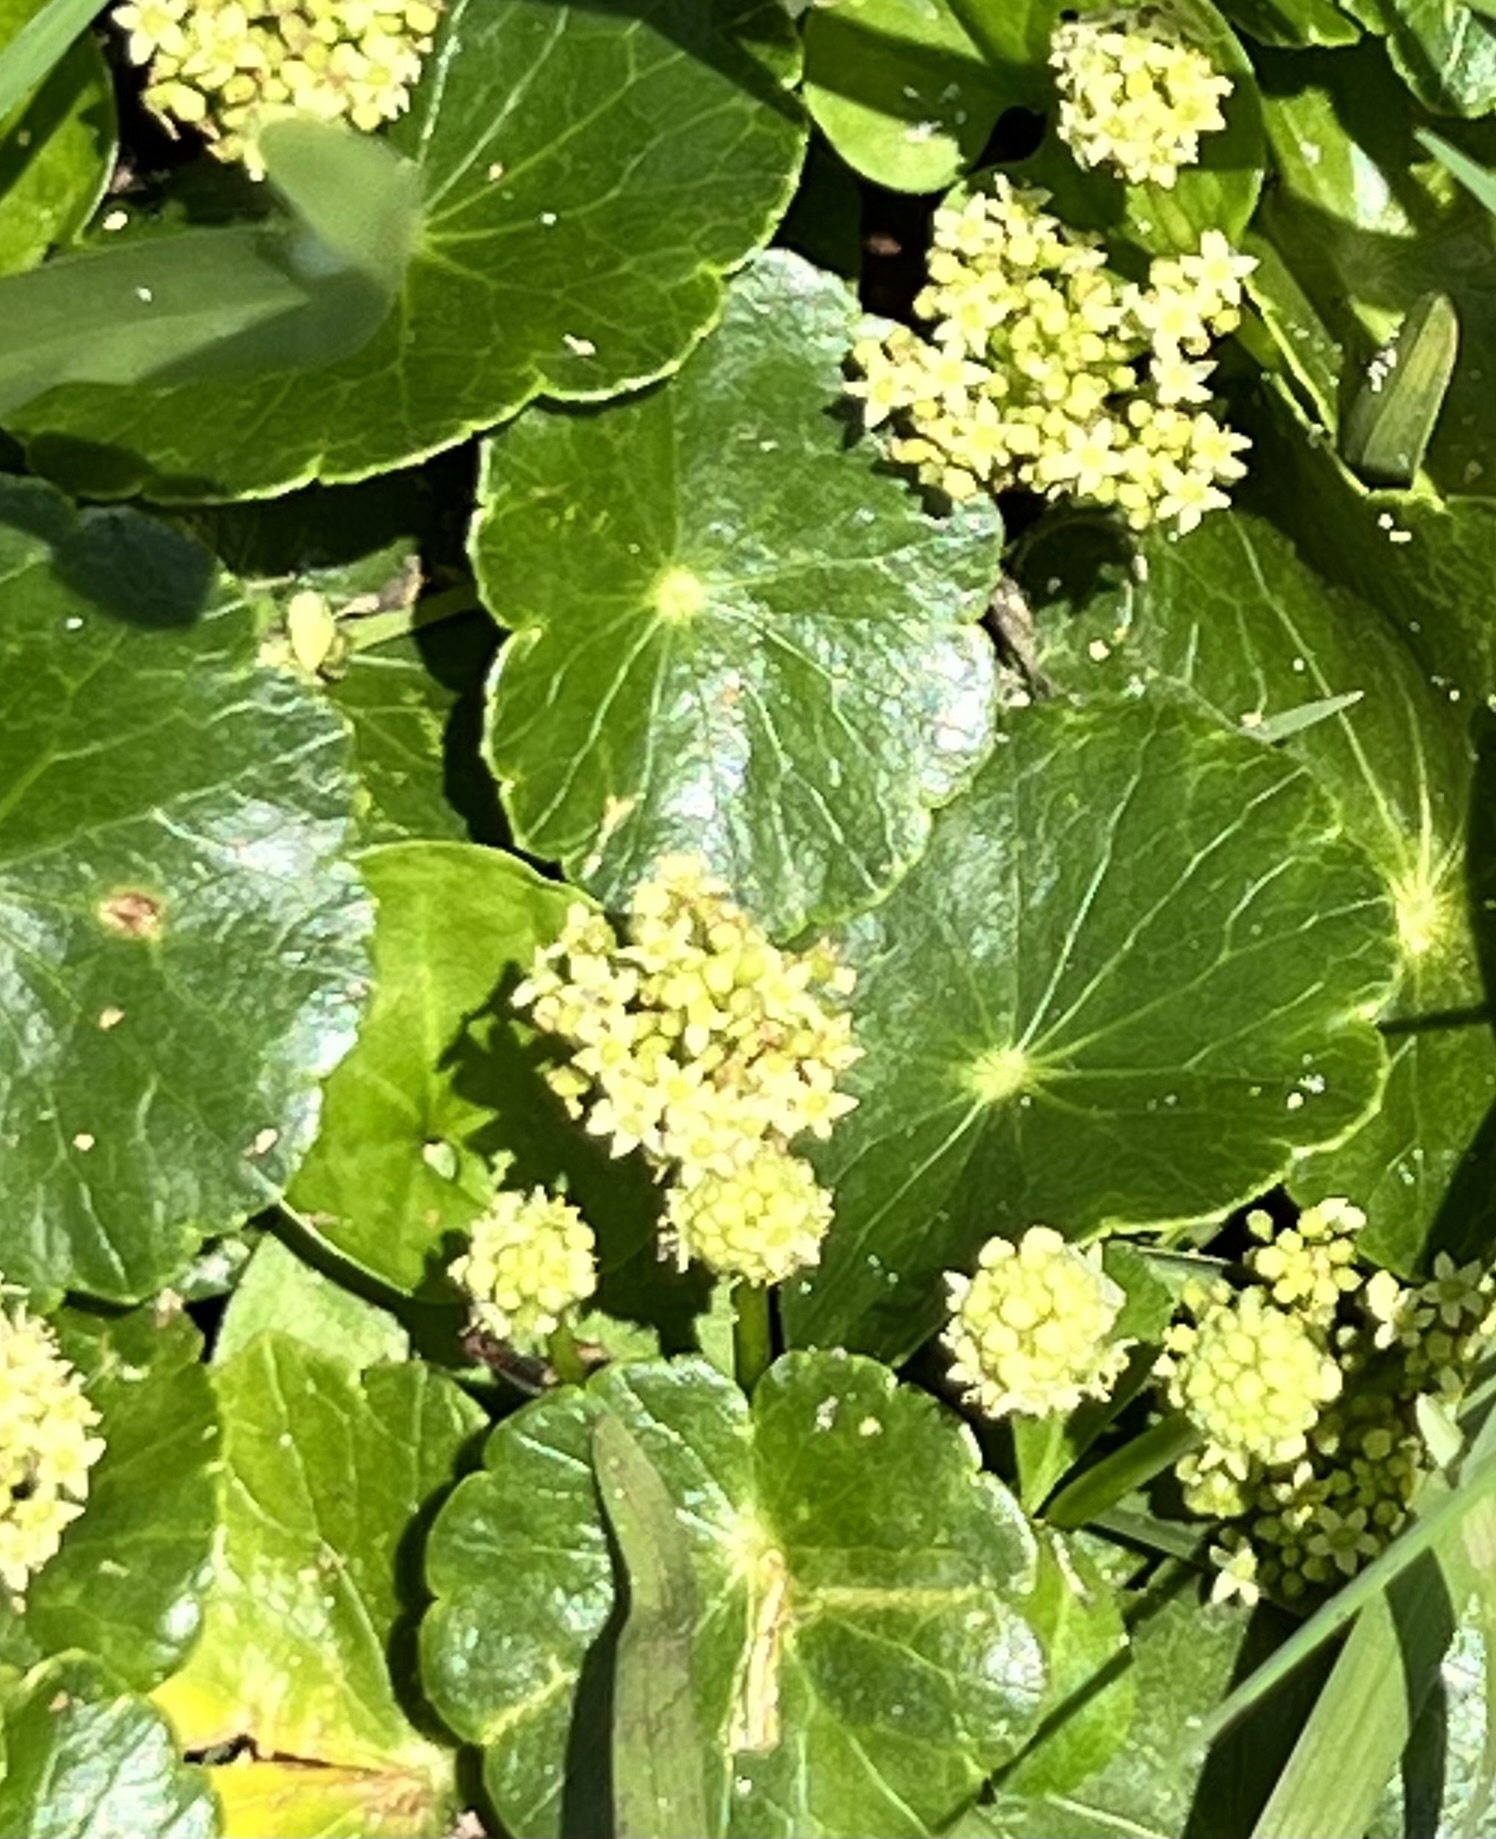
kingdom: Plantae
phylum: Tracheophyta
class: Magnoliopsida
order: Apiales
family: Araliaceae
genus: Hydrocotyle
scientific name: Hydrocotyle bonariensis
